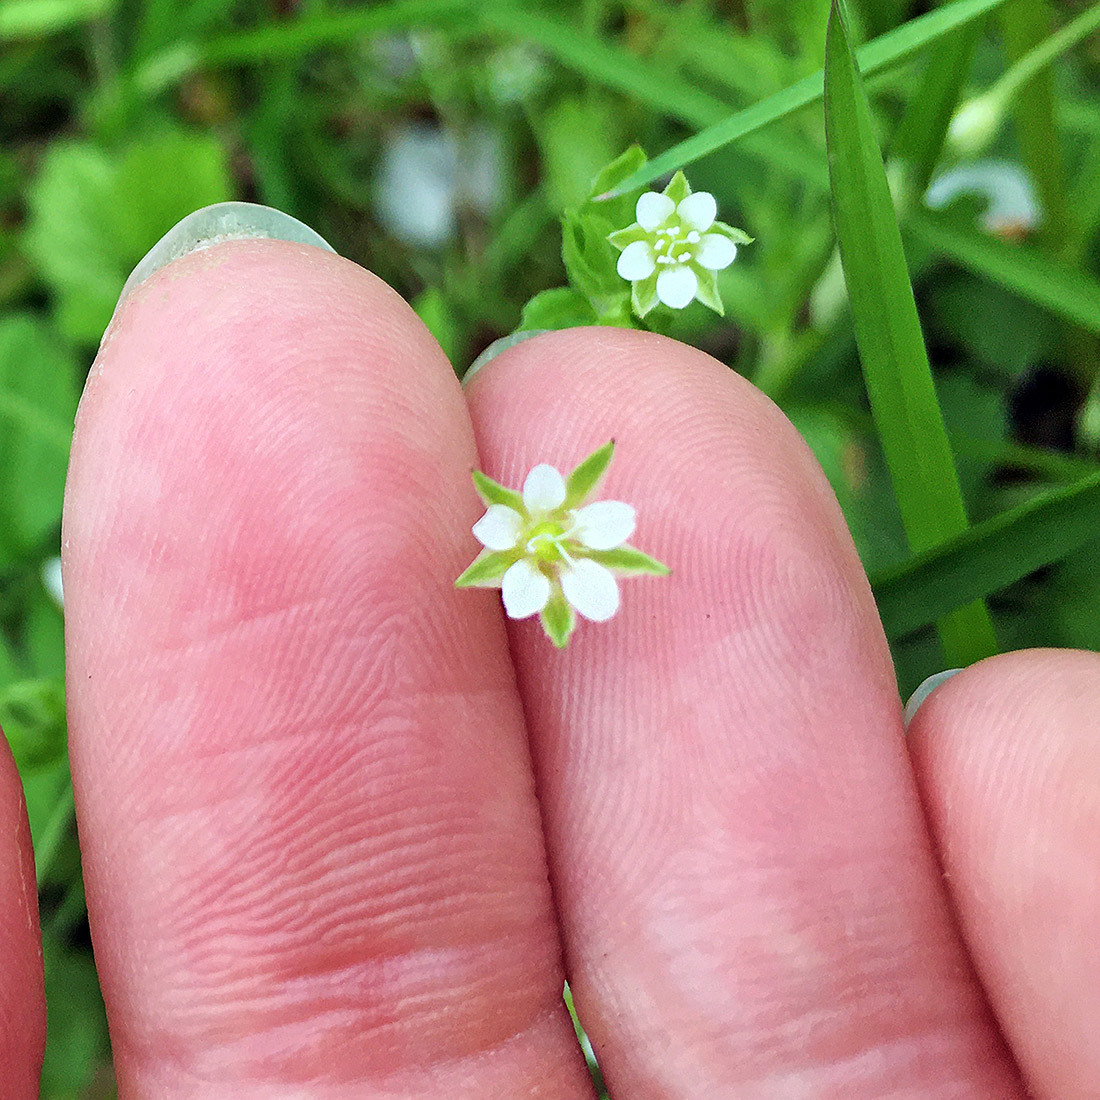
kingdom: Plantae
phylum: Tracheophyta
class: Magnoliopsida
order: Caryophyllales
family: Caryophyllaceae
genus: Moehringia
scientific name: Moehringia trinervia
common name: Three-nerved sandwort
